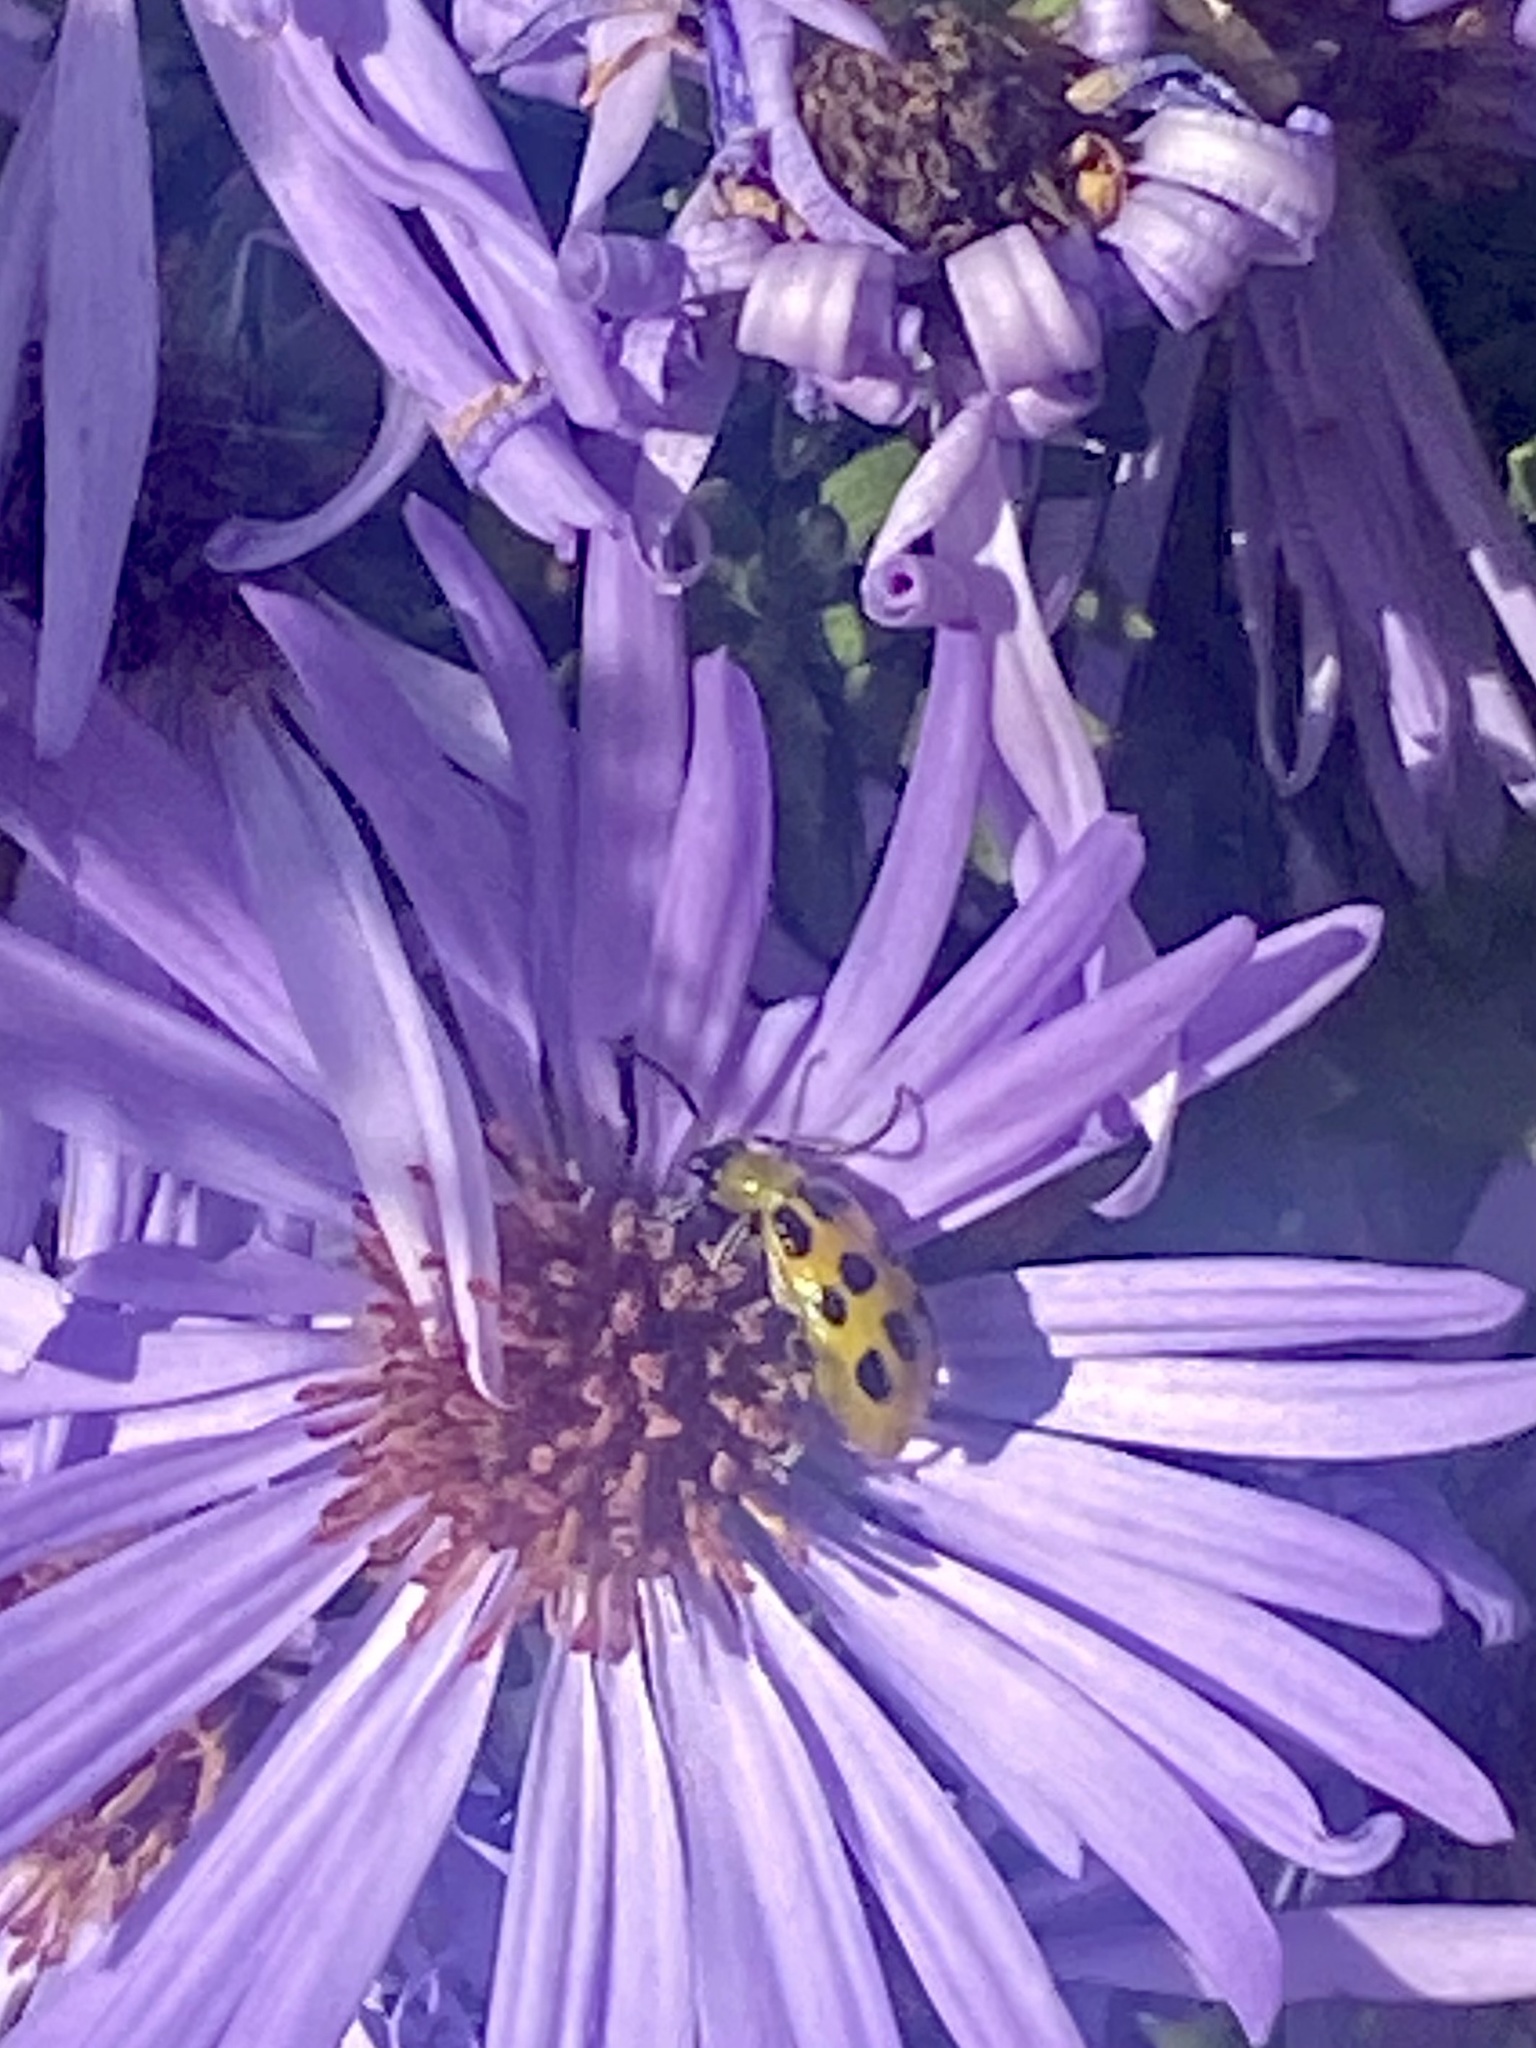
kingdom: Animalia
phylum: Arthropoda
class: Insecta
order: Coleoptera
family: Chrysomelidae
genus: Diabrotica
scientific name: Diabrotica undecimpunctata
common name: Spotted cucumber beetle
